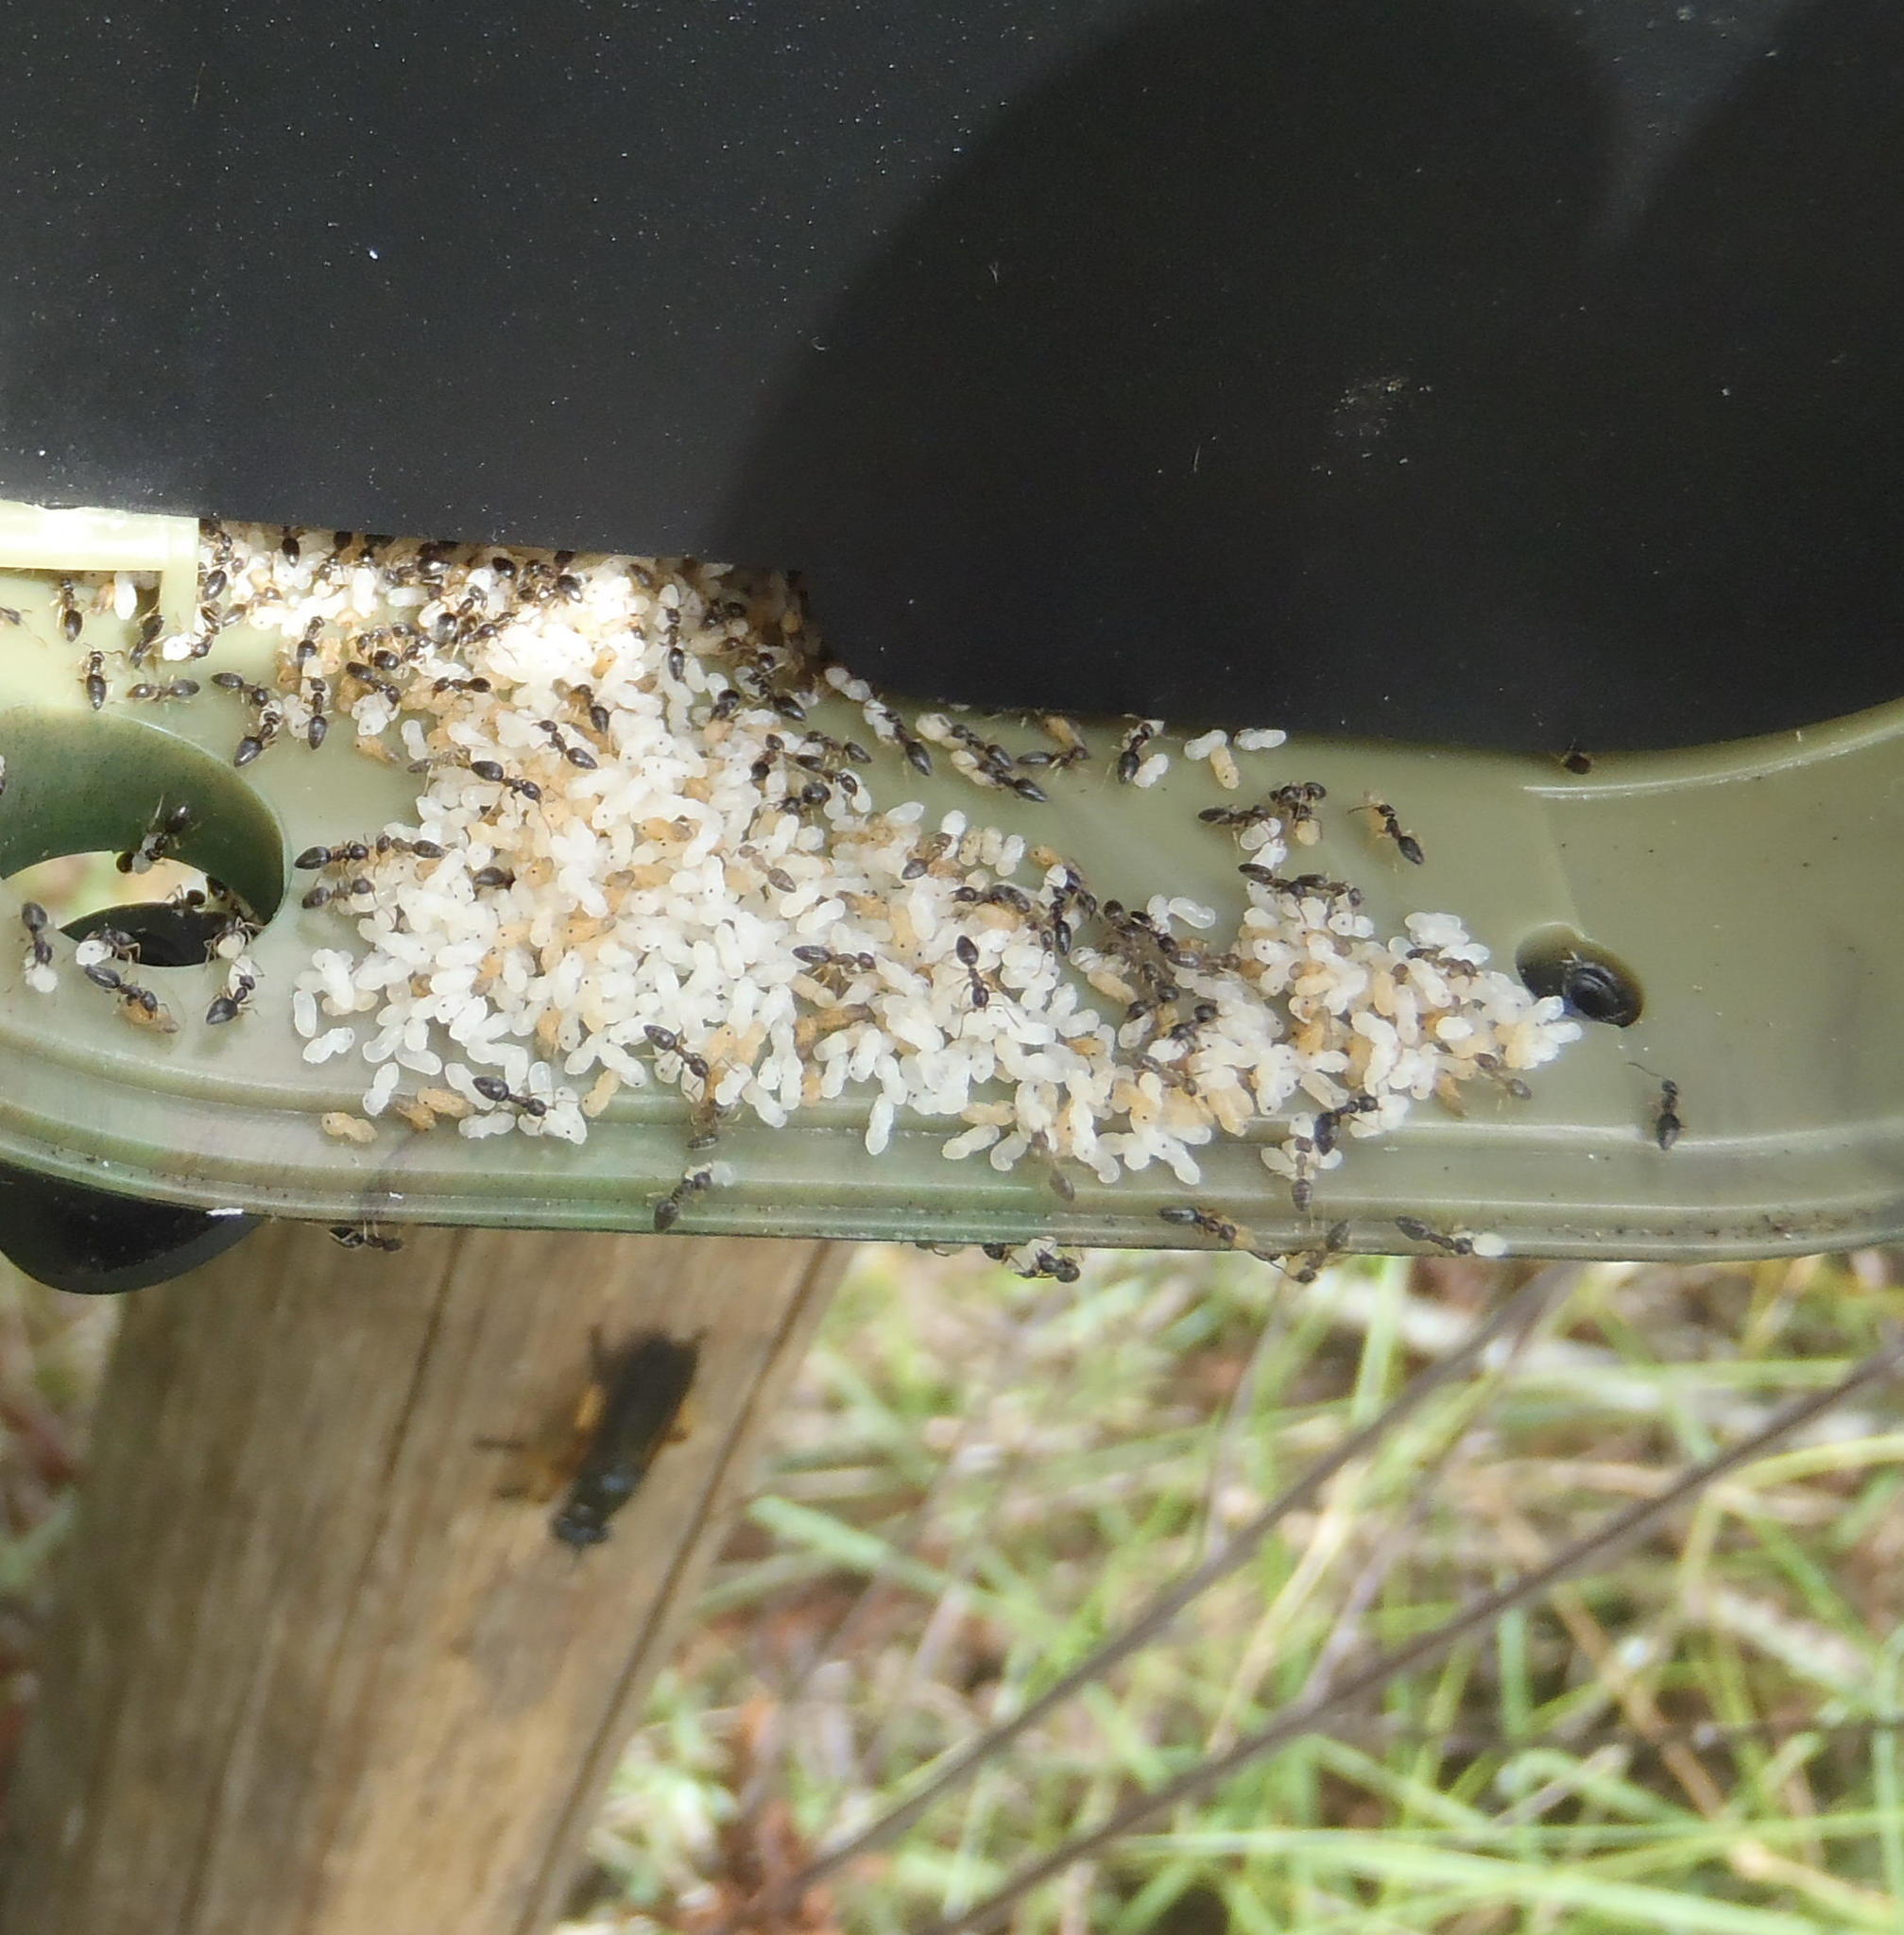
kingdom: Animalia
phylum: Arthropoda
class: Insecta
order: Diptera
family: Asilidae
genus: Laphria
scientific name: Laphria flavipes
